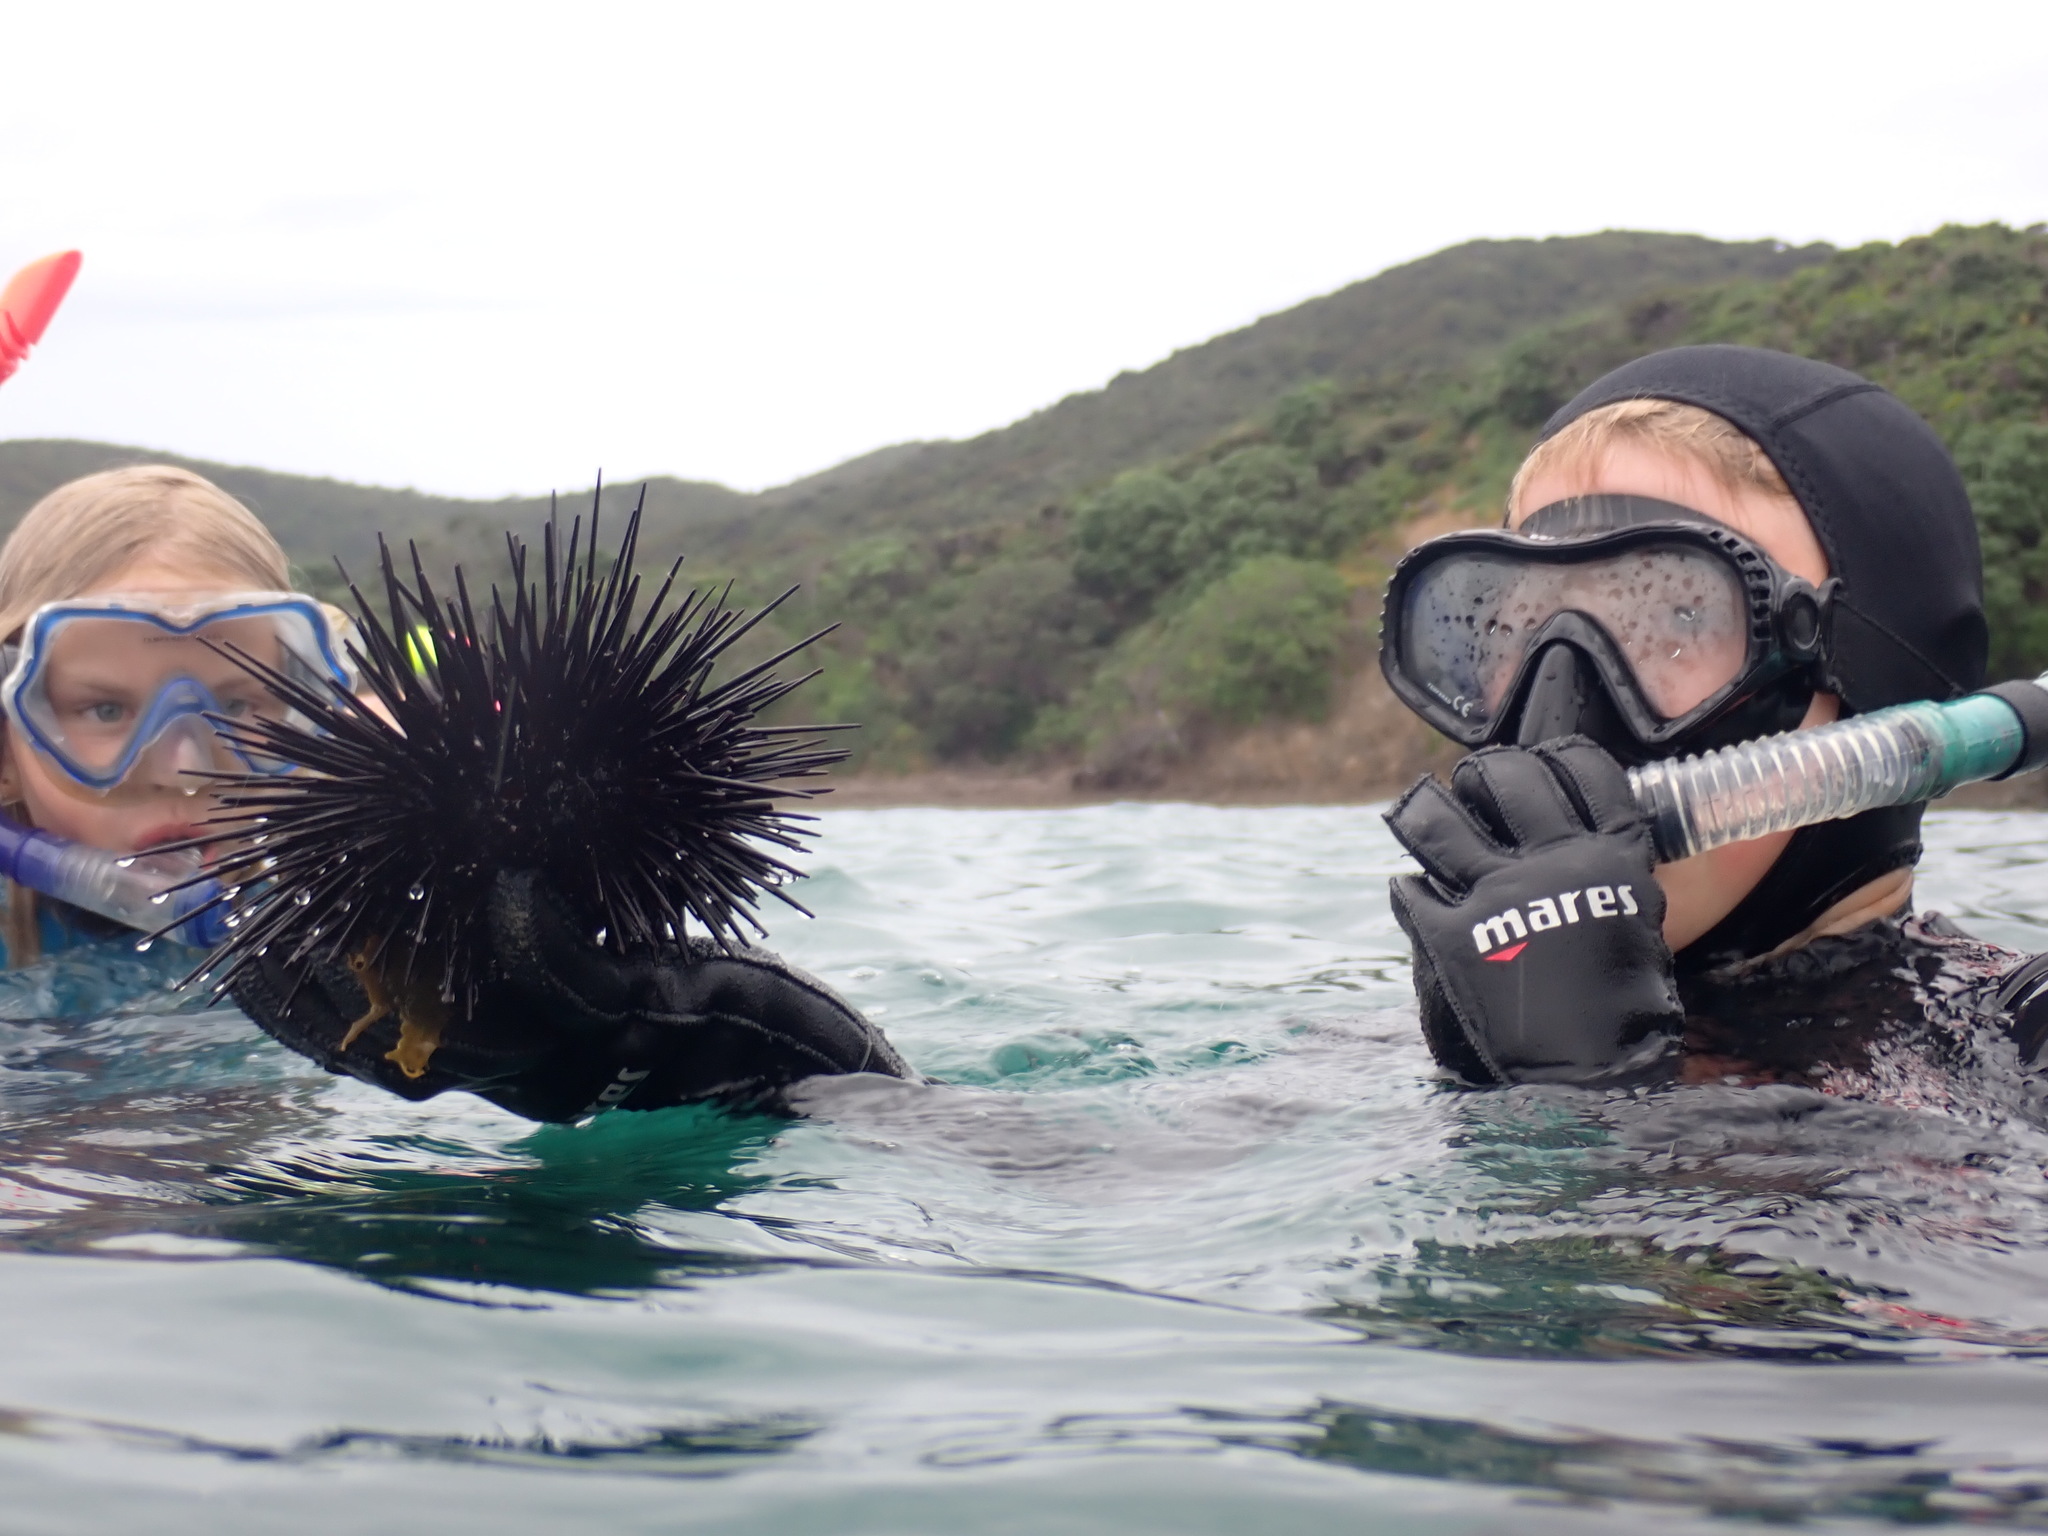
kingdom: Animalia
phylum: Echinodermata
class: Echinoidea
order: Diadematoida
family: Diadematidae
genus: Centrostephanus
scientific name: Centrostephanus rodgersii
